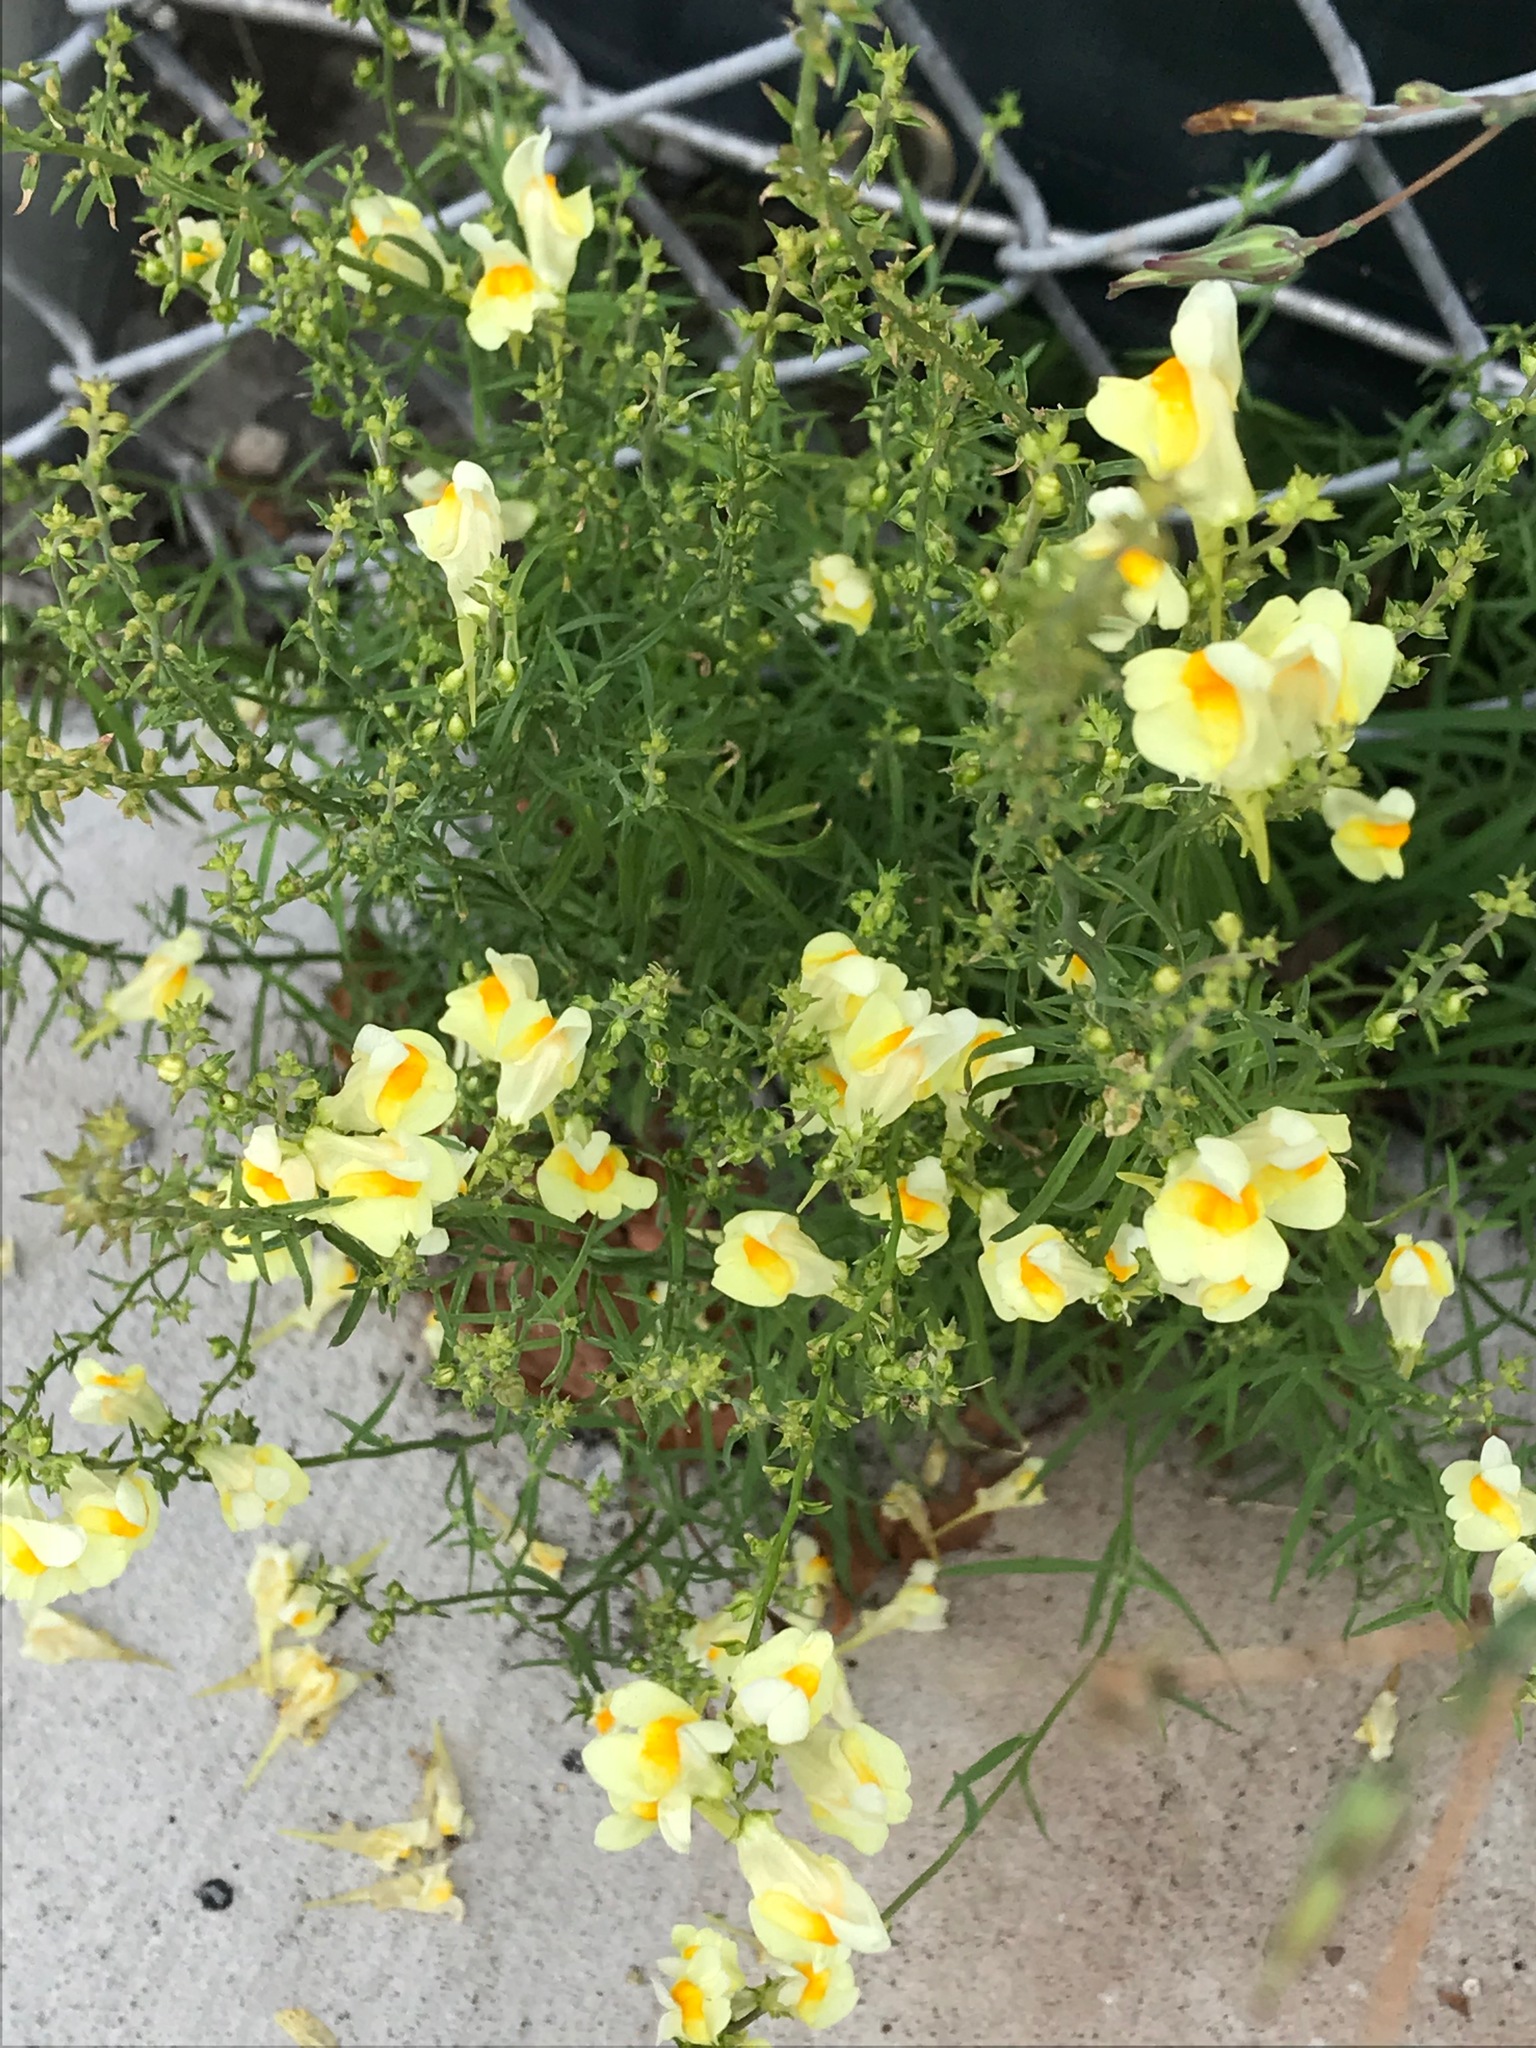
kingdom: Plantae
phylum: Tracheophyta
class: Magnoliopsida
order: Lamiales
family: Plantaginaceae
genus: Linaria
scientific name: Linaria vulgaris
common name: Butter and eggs
